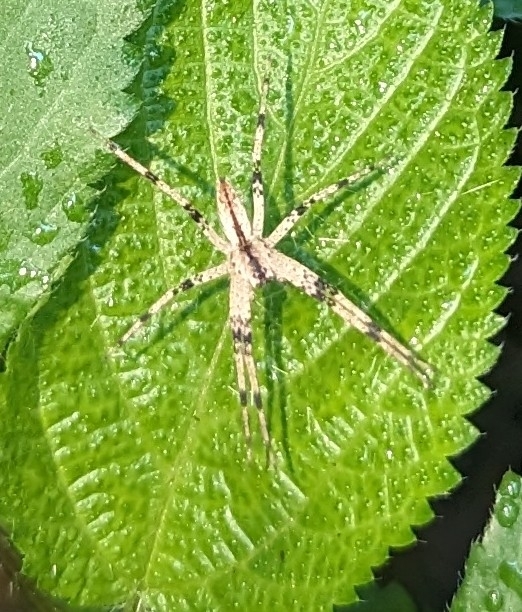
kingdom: Animalia
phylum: Arthropoda
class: Arachnida
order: Araneae
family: Pisauridae
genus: Pisaurina
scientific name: Pisaurina mira
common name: American nursery web spider
